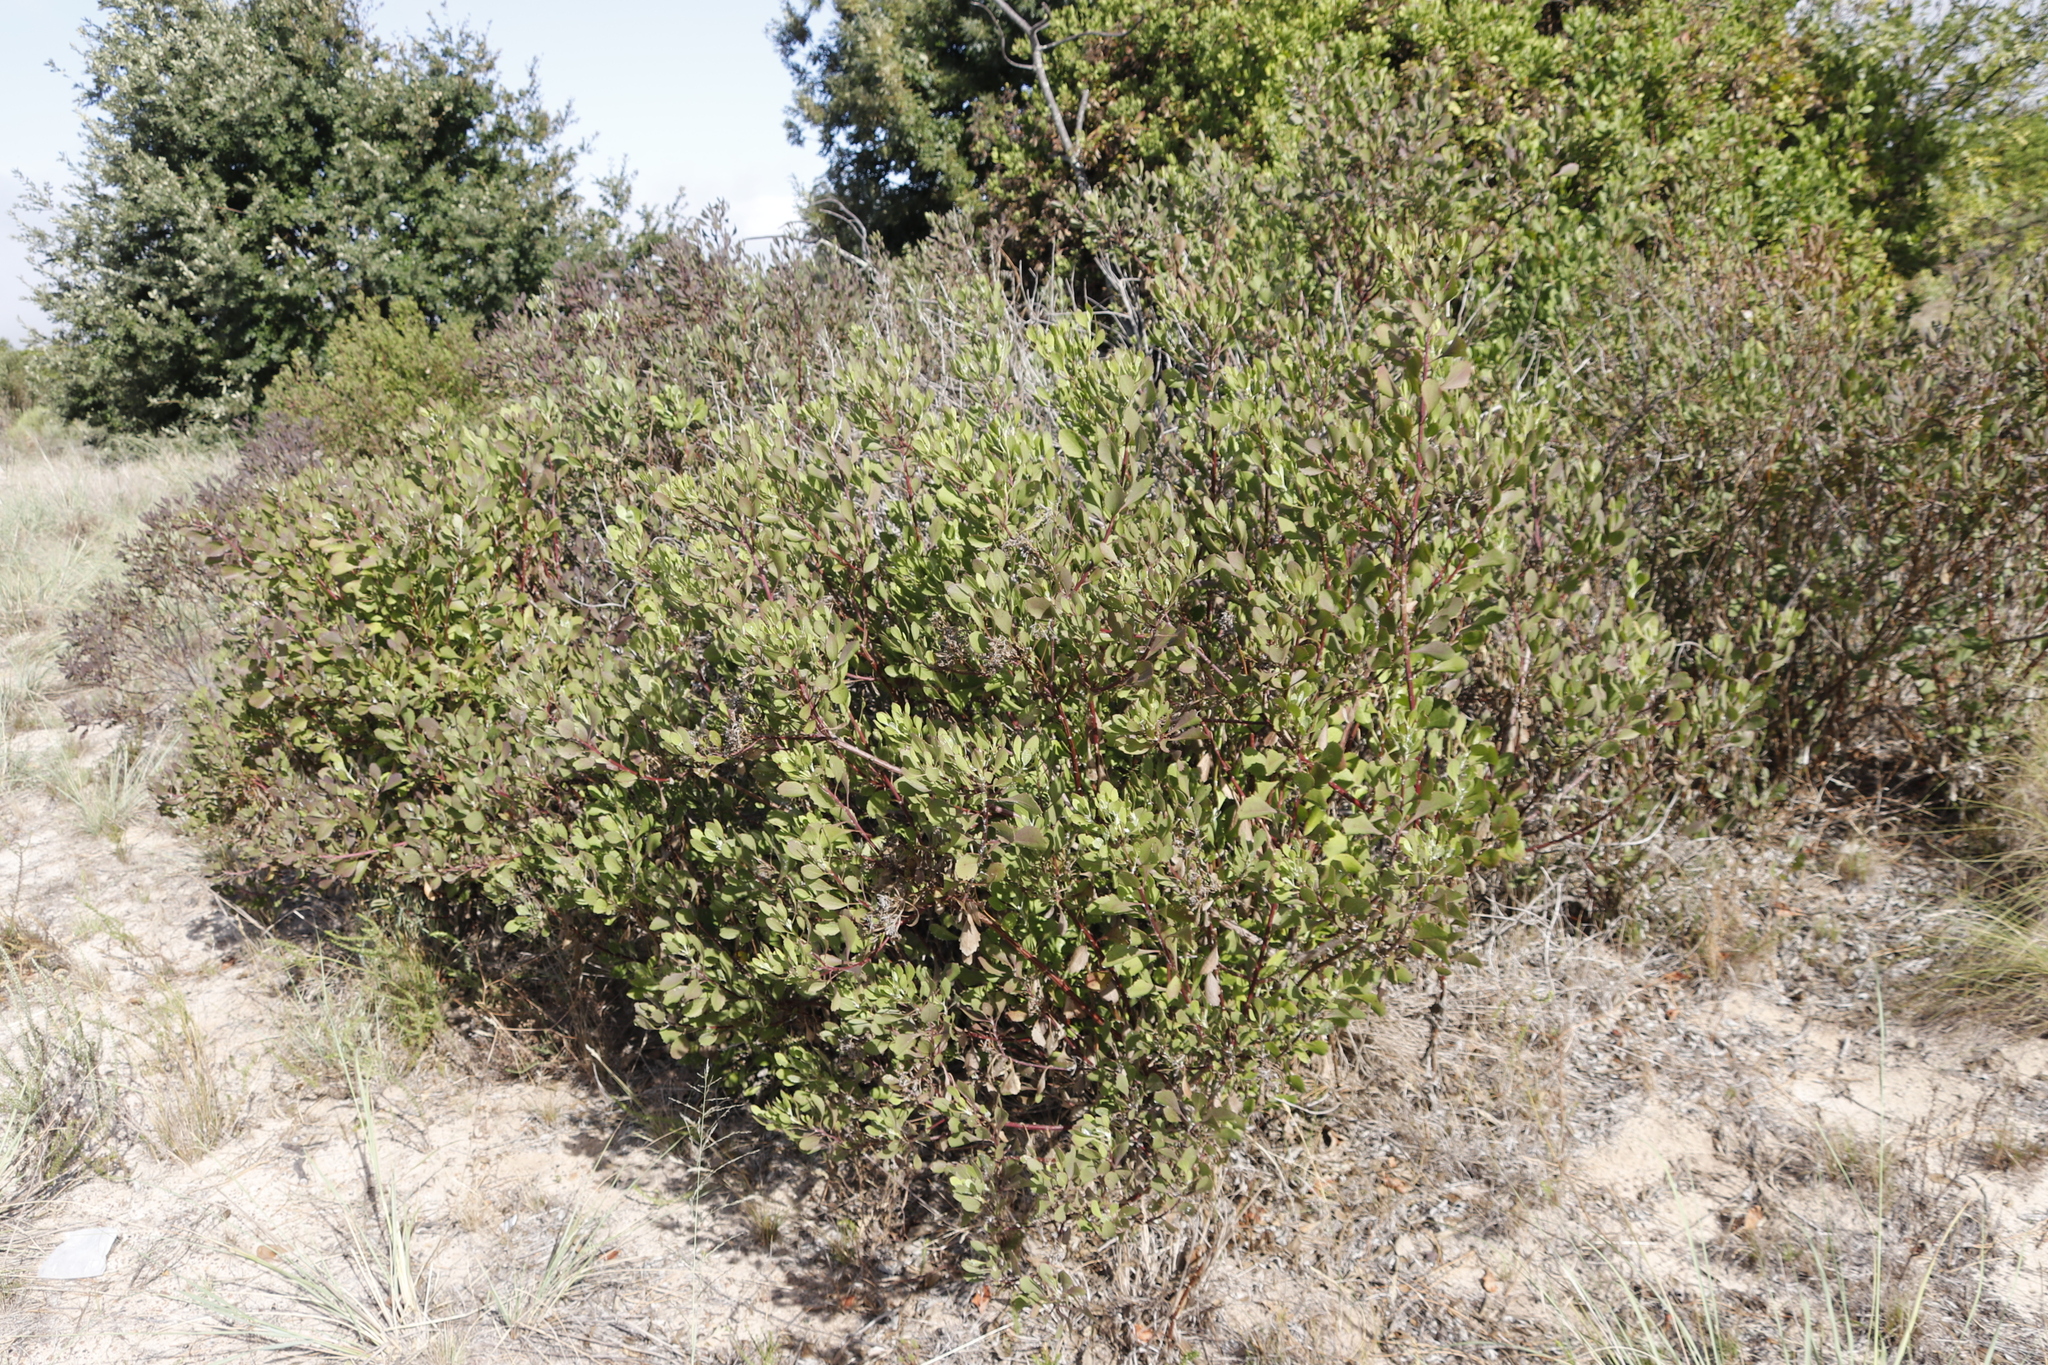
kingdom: Plantae
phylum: Tracheophyta
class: Magnoliopsida
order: Asterales
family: Asteraceae
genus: Osteospermum
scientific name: Osteospermum moniliferum
